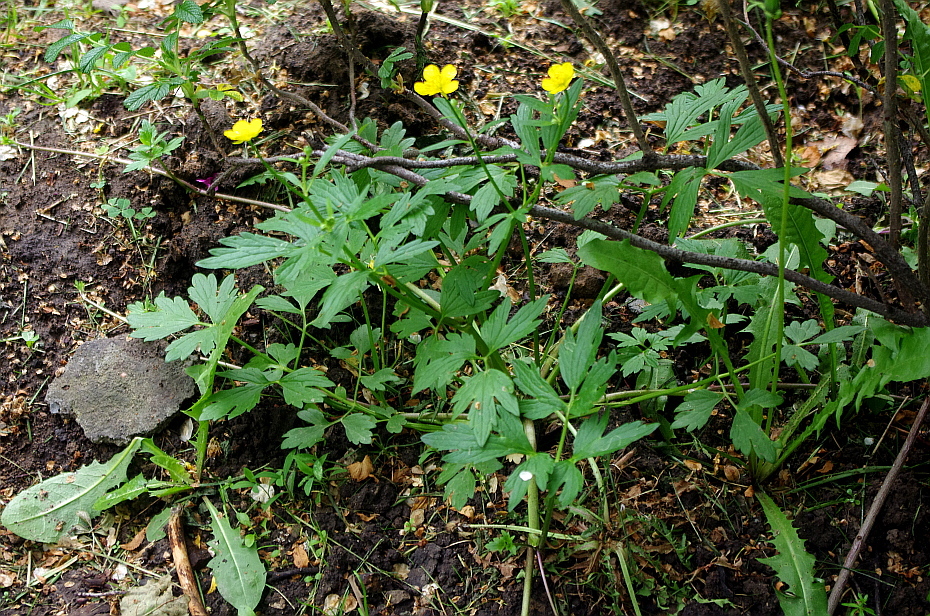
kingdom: Plantae
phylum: Tracheophyta
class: Magnoliopsida
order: Ranunculales
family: Ranunculaceae
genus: Ranunculus
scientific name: Ranunculus repens
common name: Creeping buttercup
